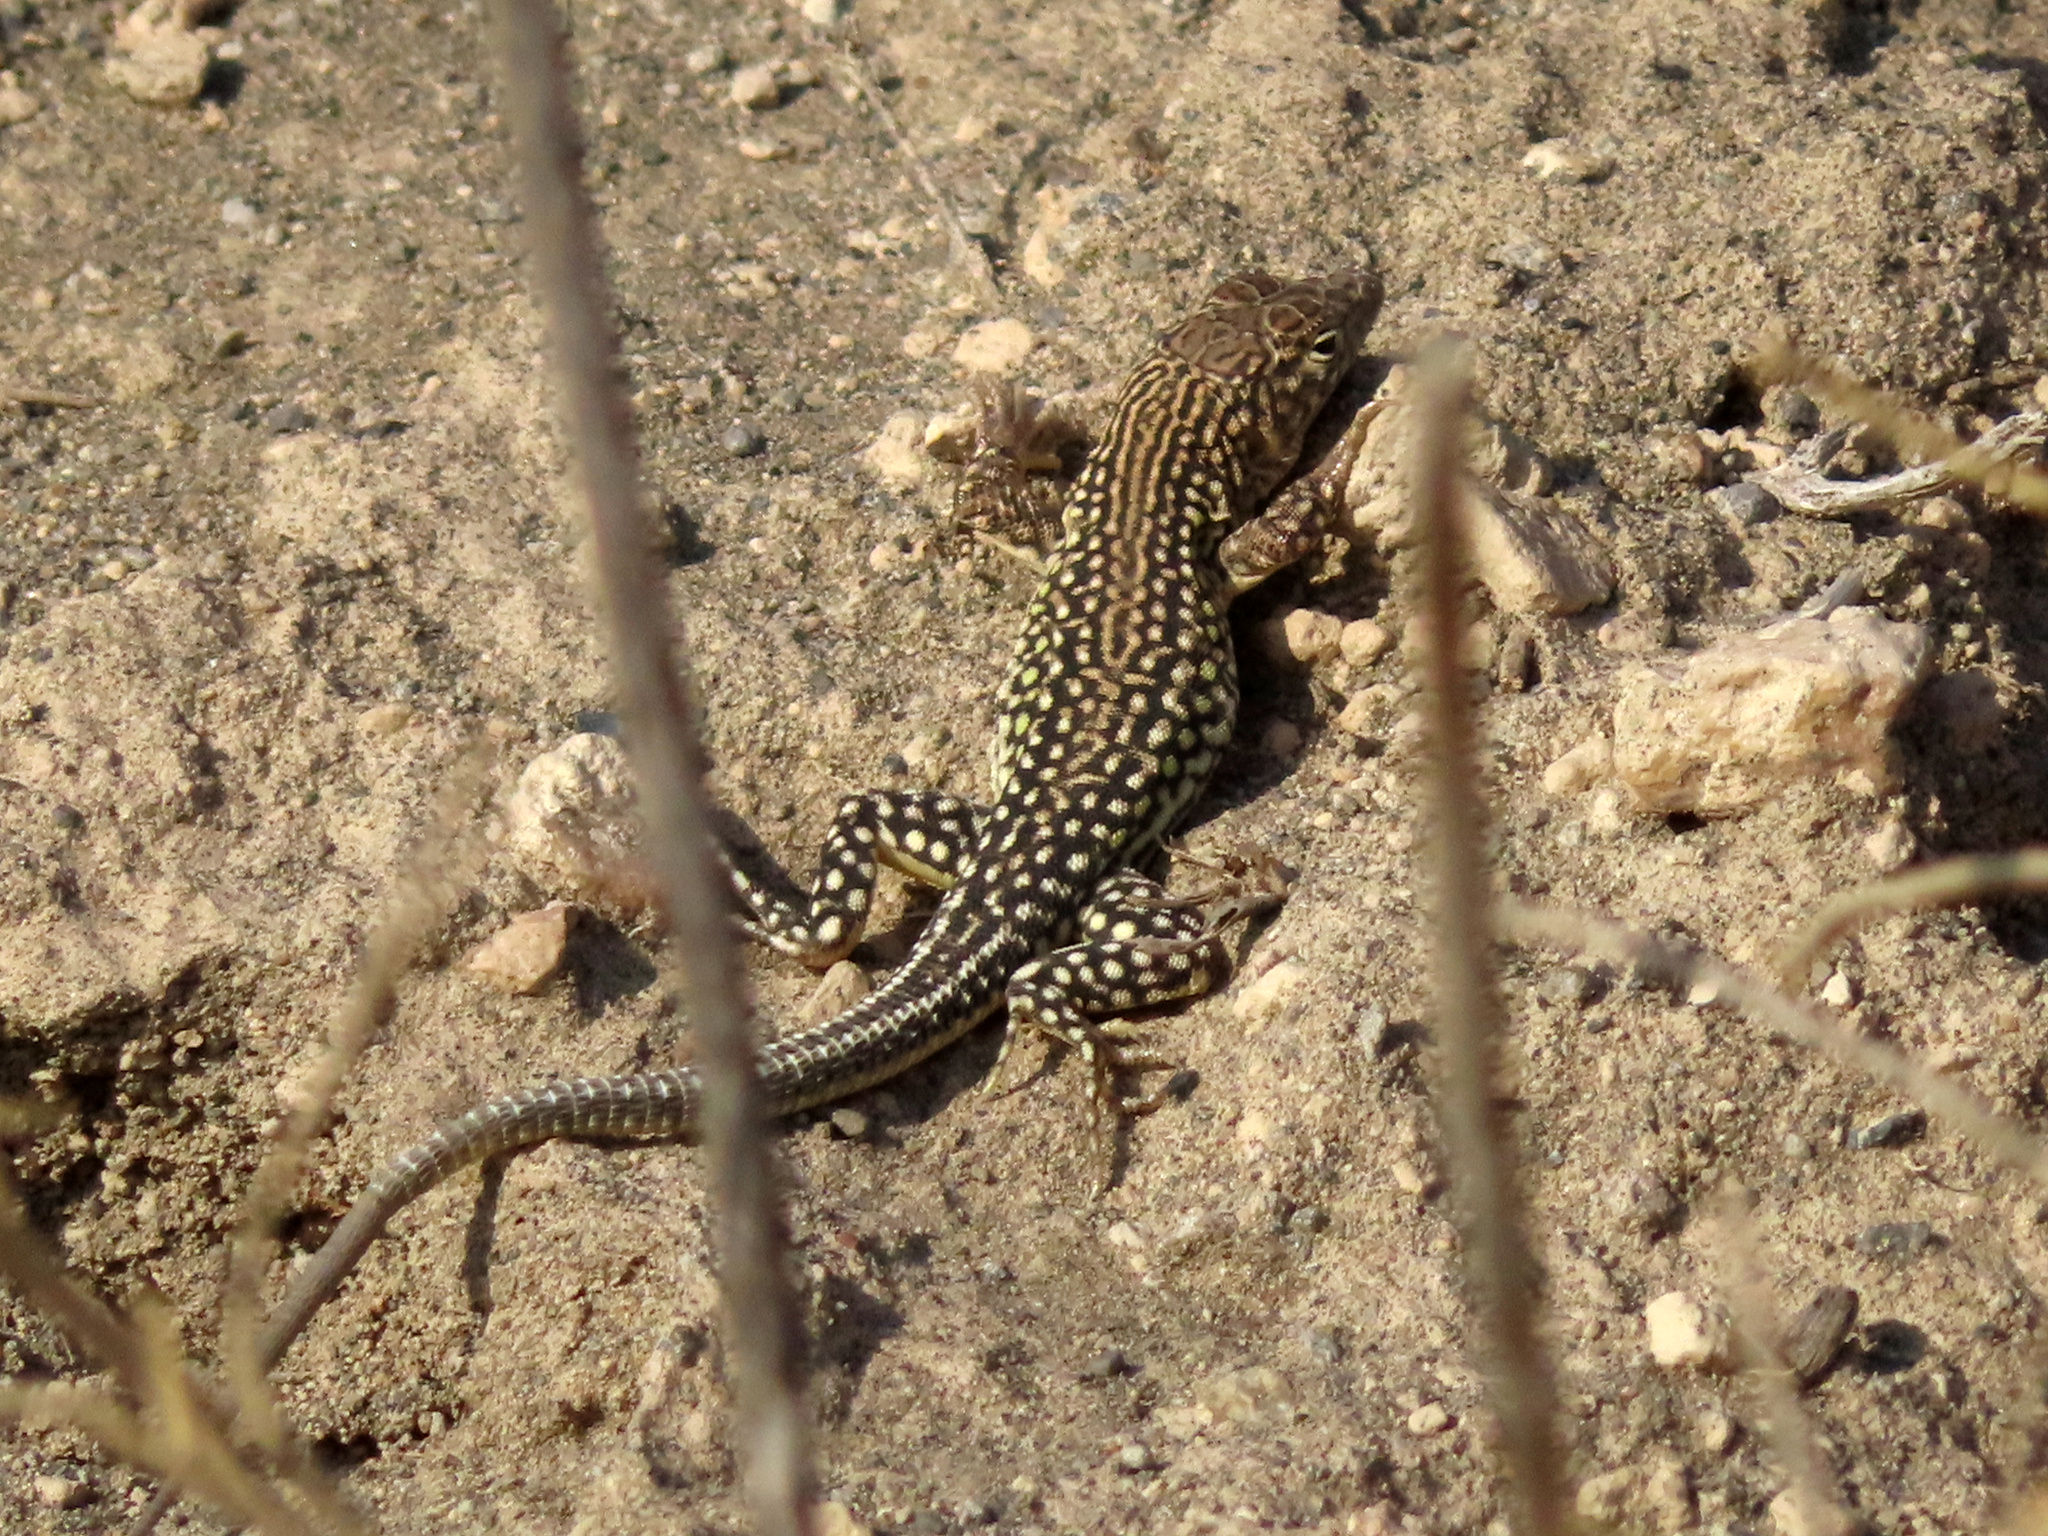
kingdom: Animalia
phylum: Chordata
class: Squamata
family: Lacertidae
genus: Eremias
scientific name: Eremias strauchi
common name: Strauch's racerunner
